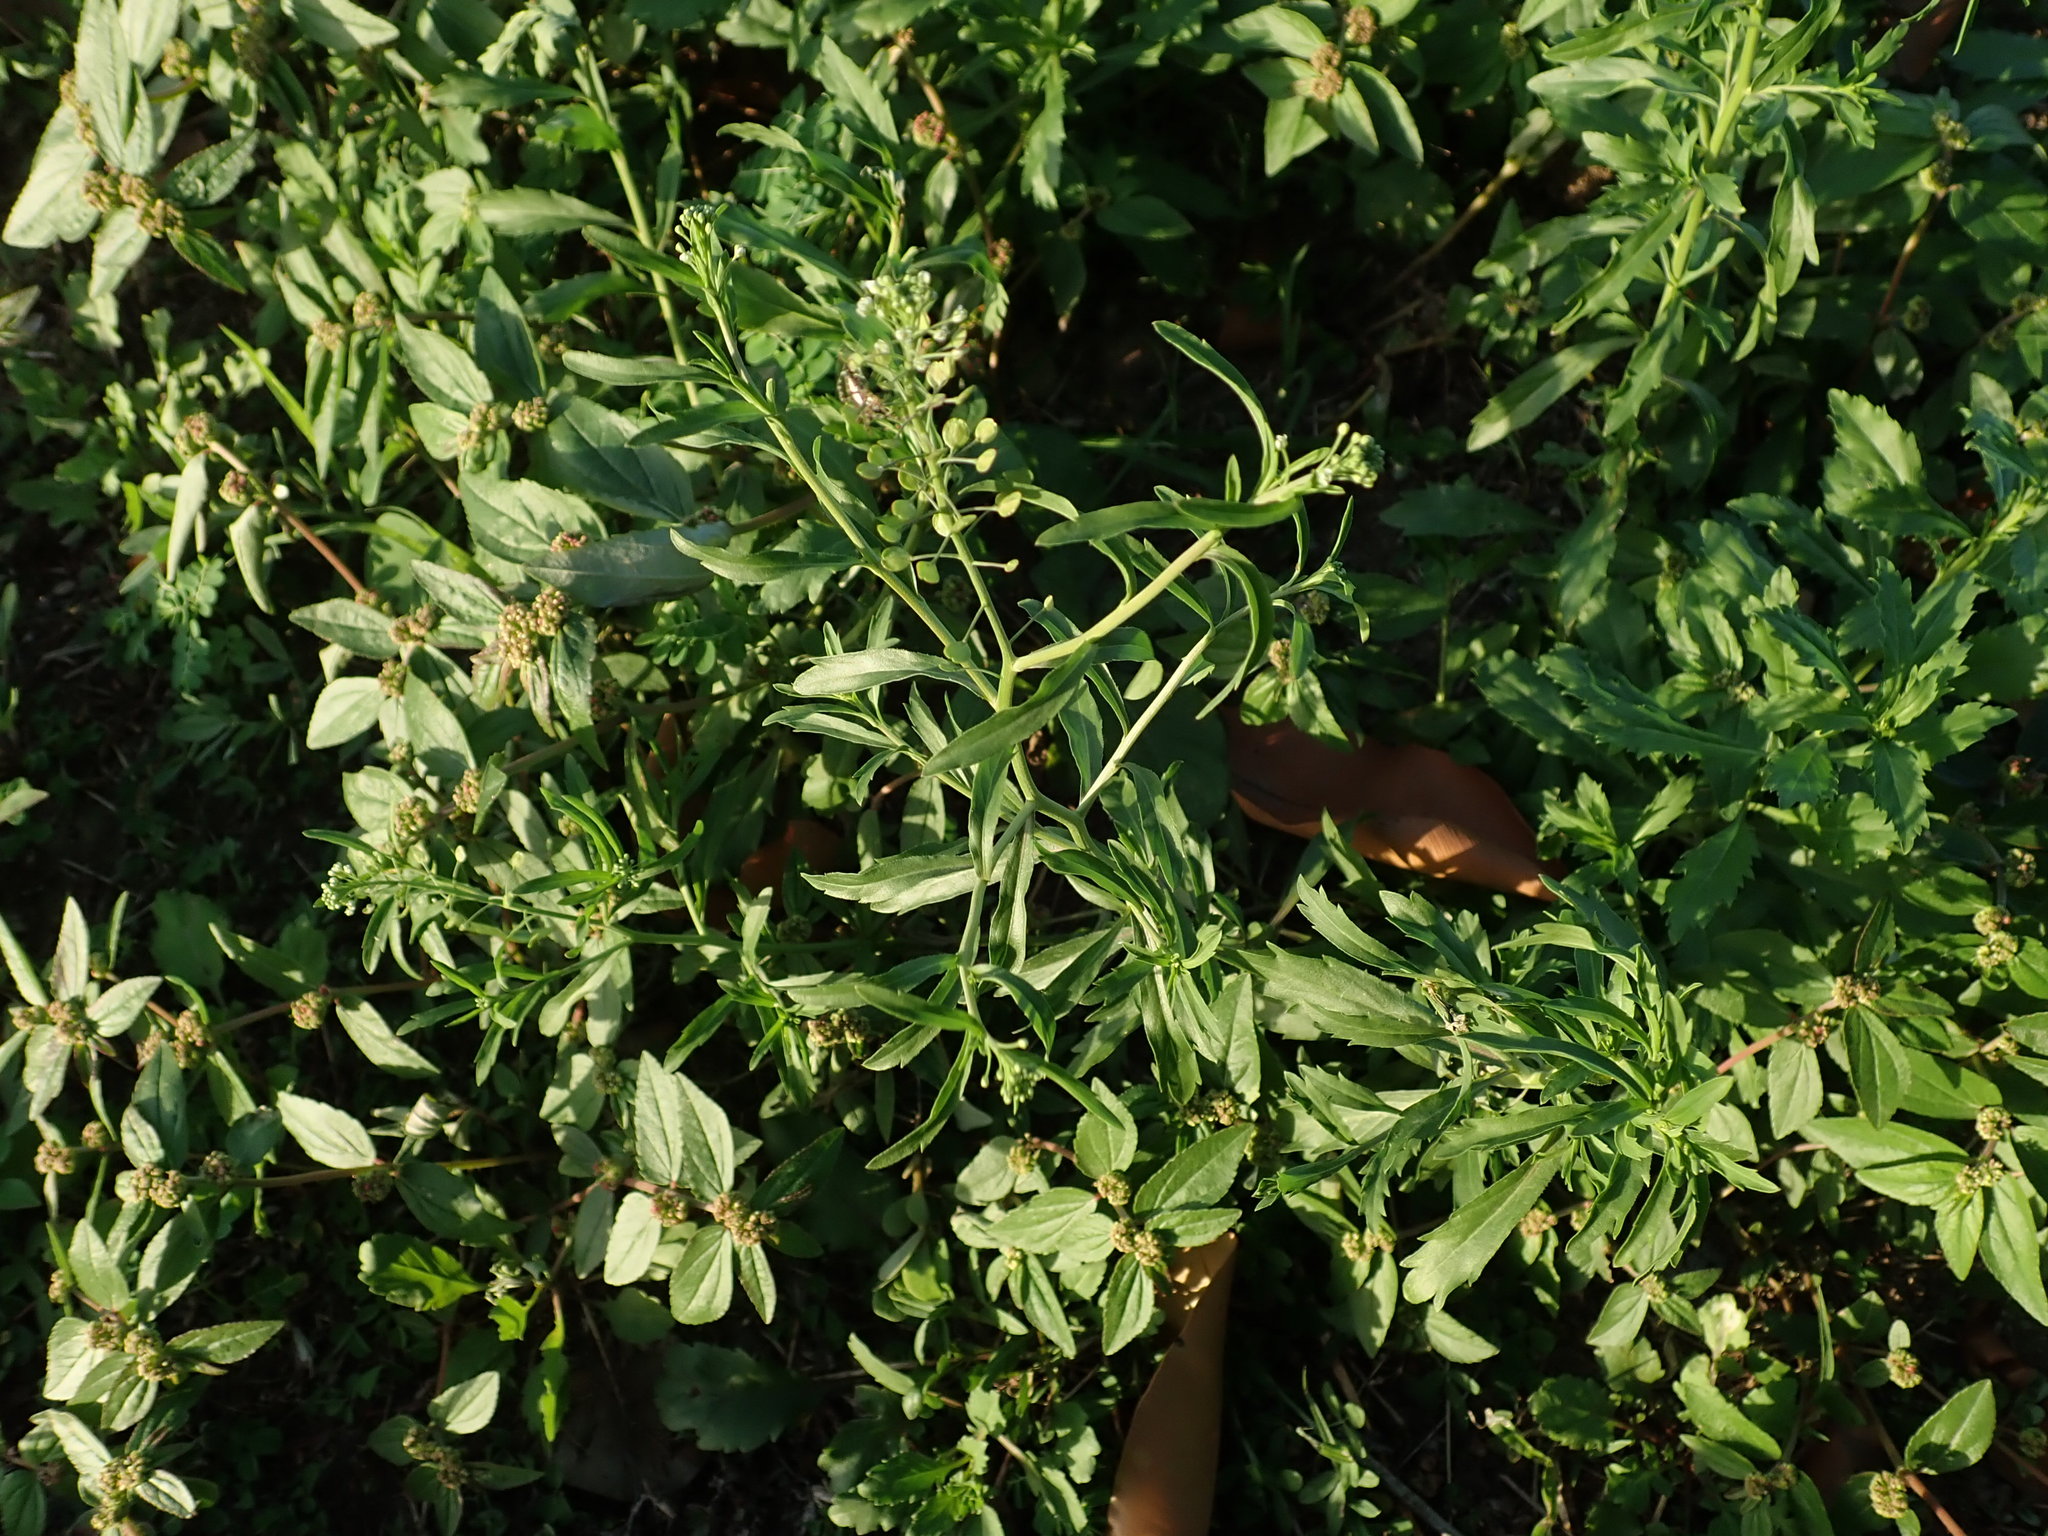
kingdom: Plantae
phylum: Tracheophyta
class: Magnoliopsida
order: Brassicales
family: Brassicaceae
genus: Lepidium
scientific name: Lepidium virginicum
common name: Least pepperwort
